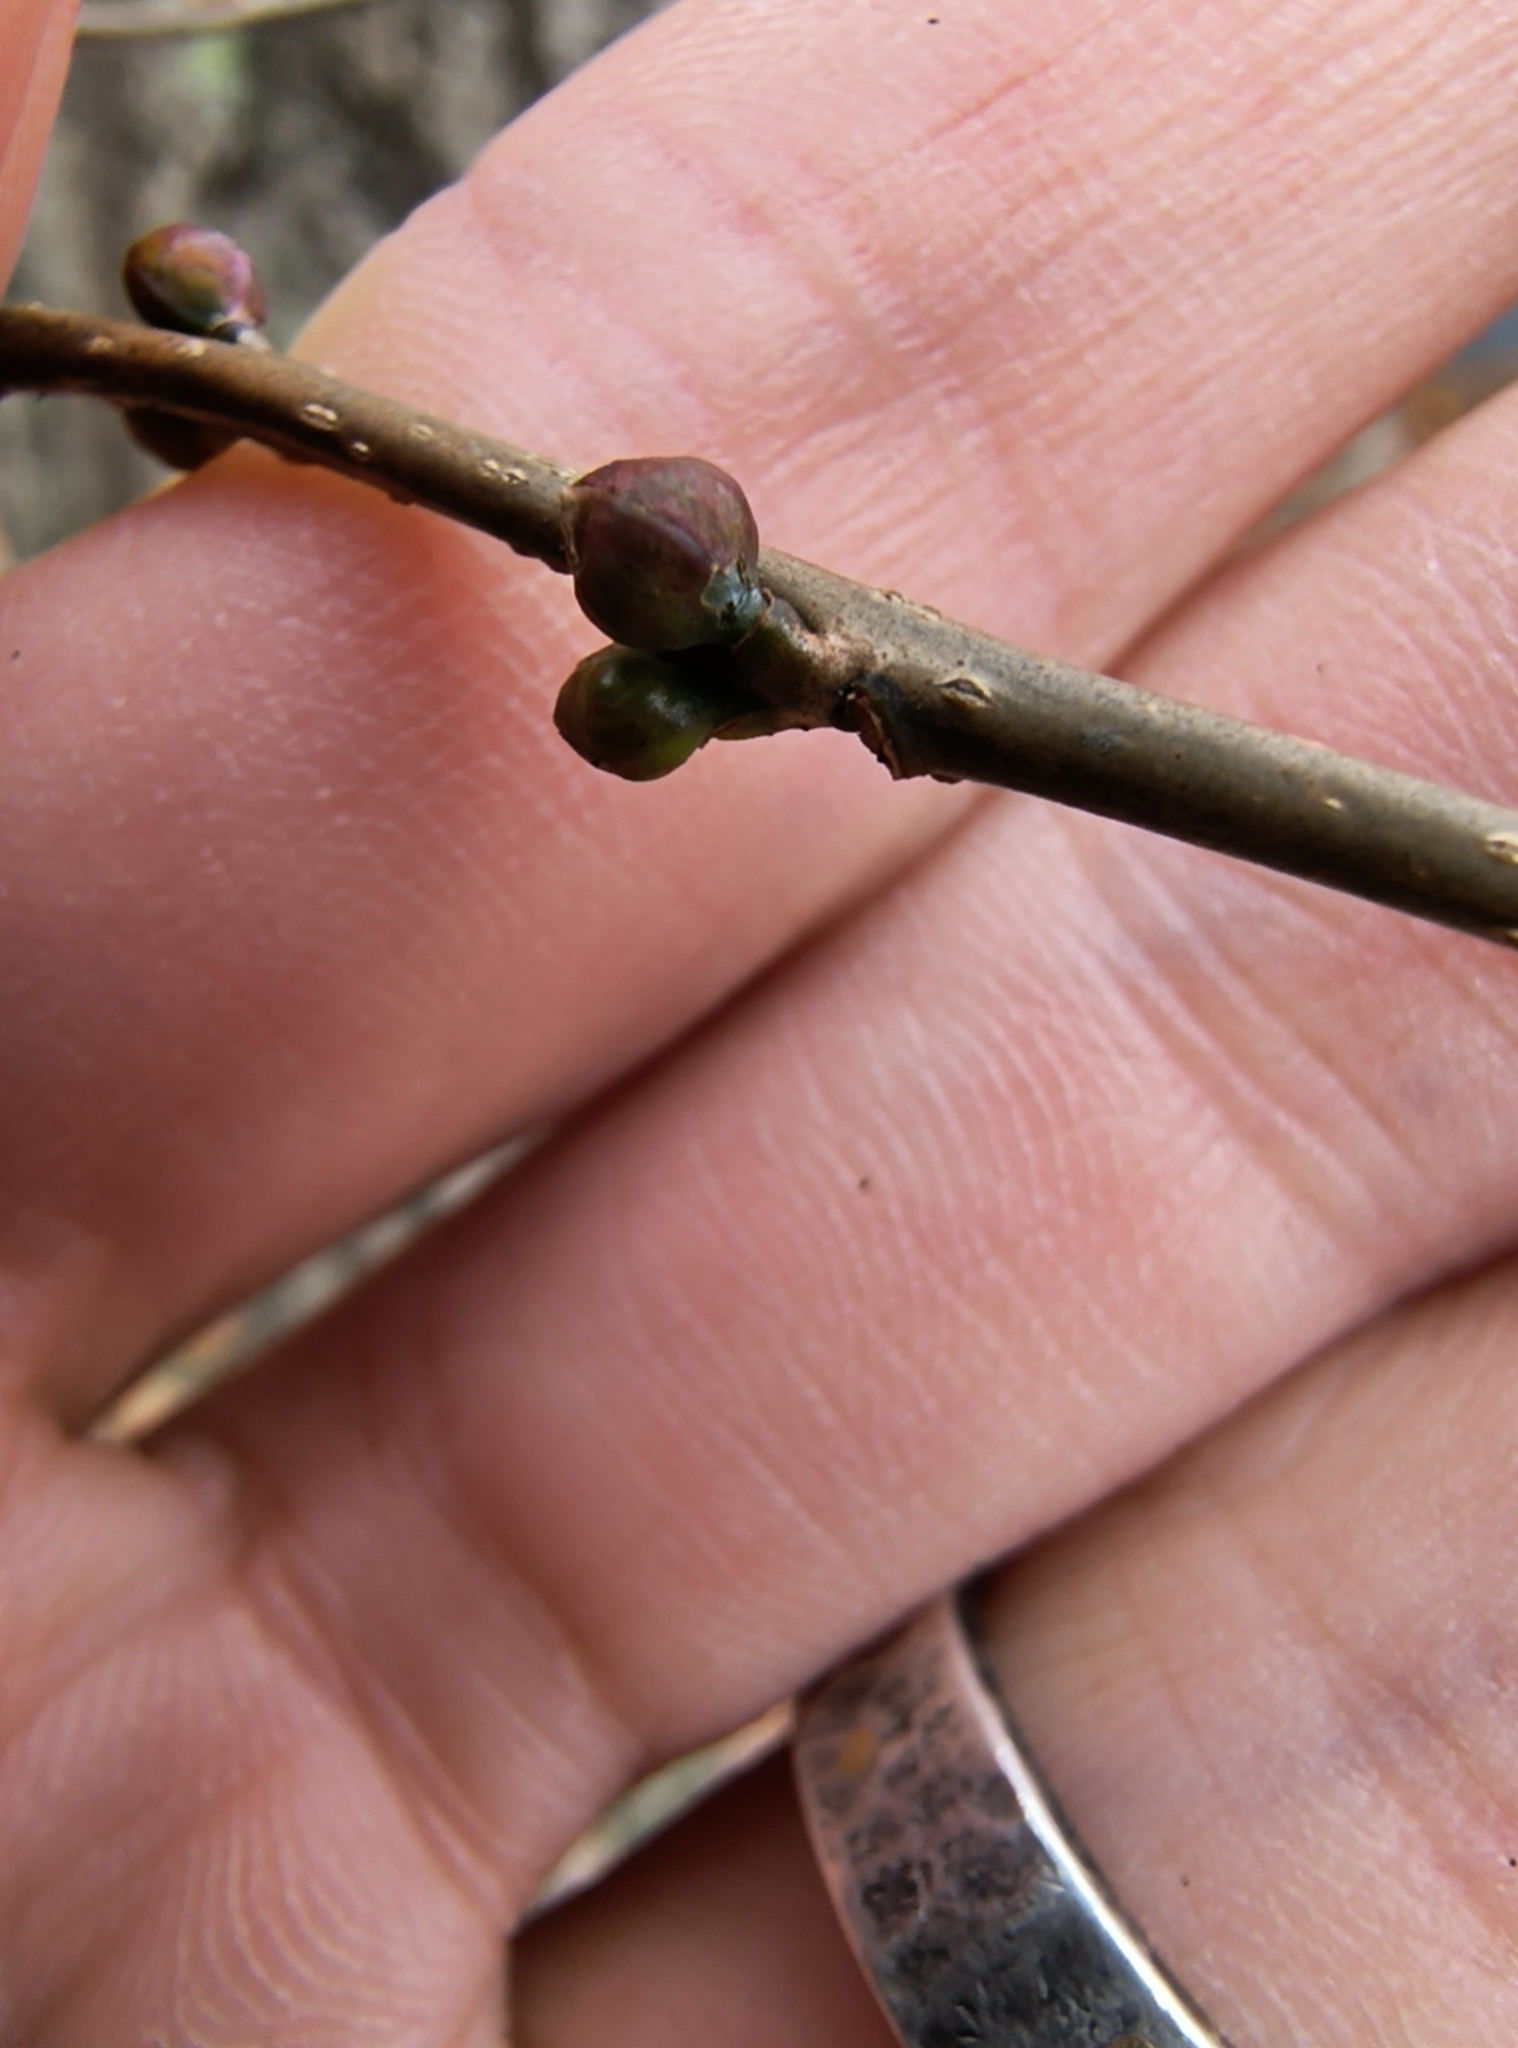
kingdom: Plantae
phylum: Tracheophyta
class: Magnoliopsida
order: Laurales
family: Lauraceae
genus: Lindera
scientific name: Lindera benzoin
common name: Spicebush
